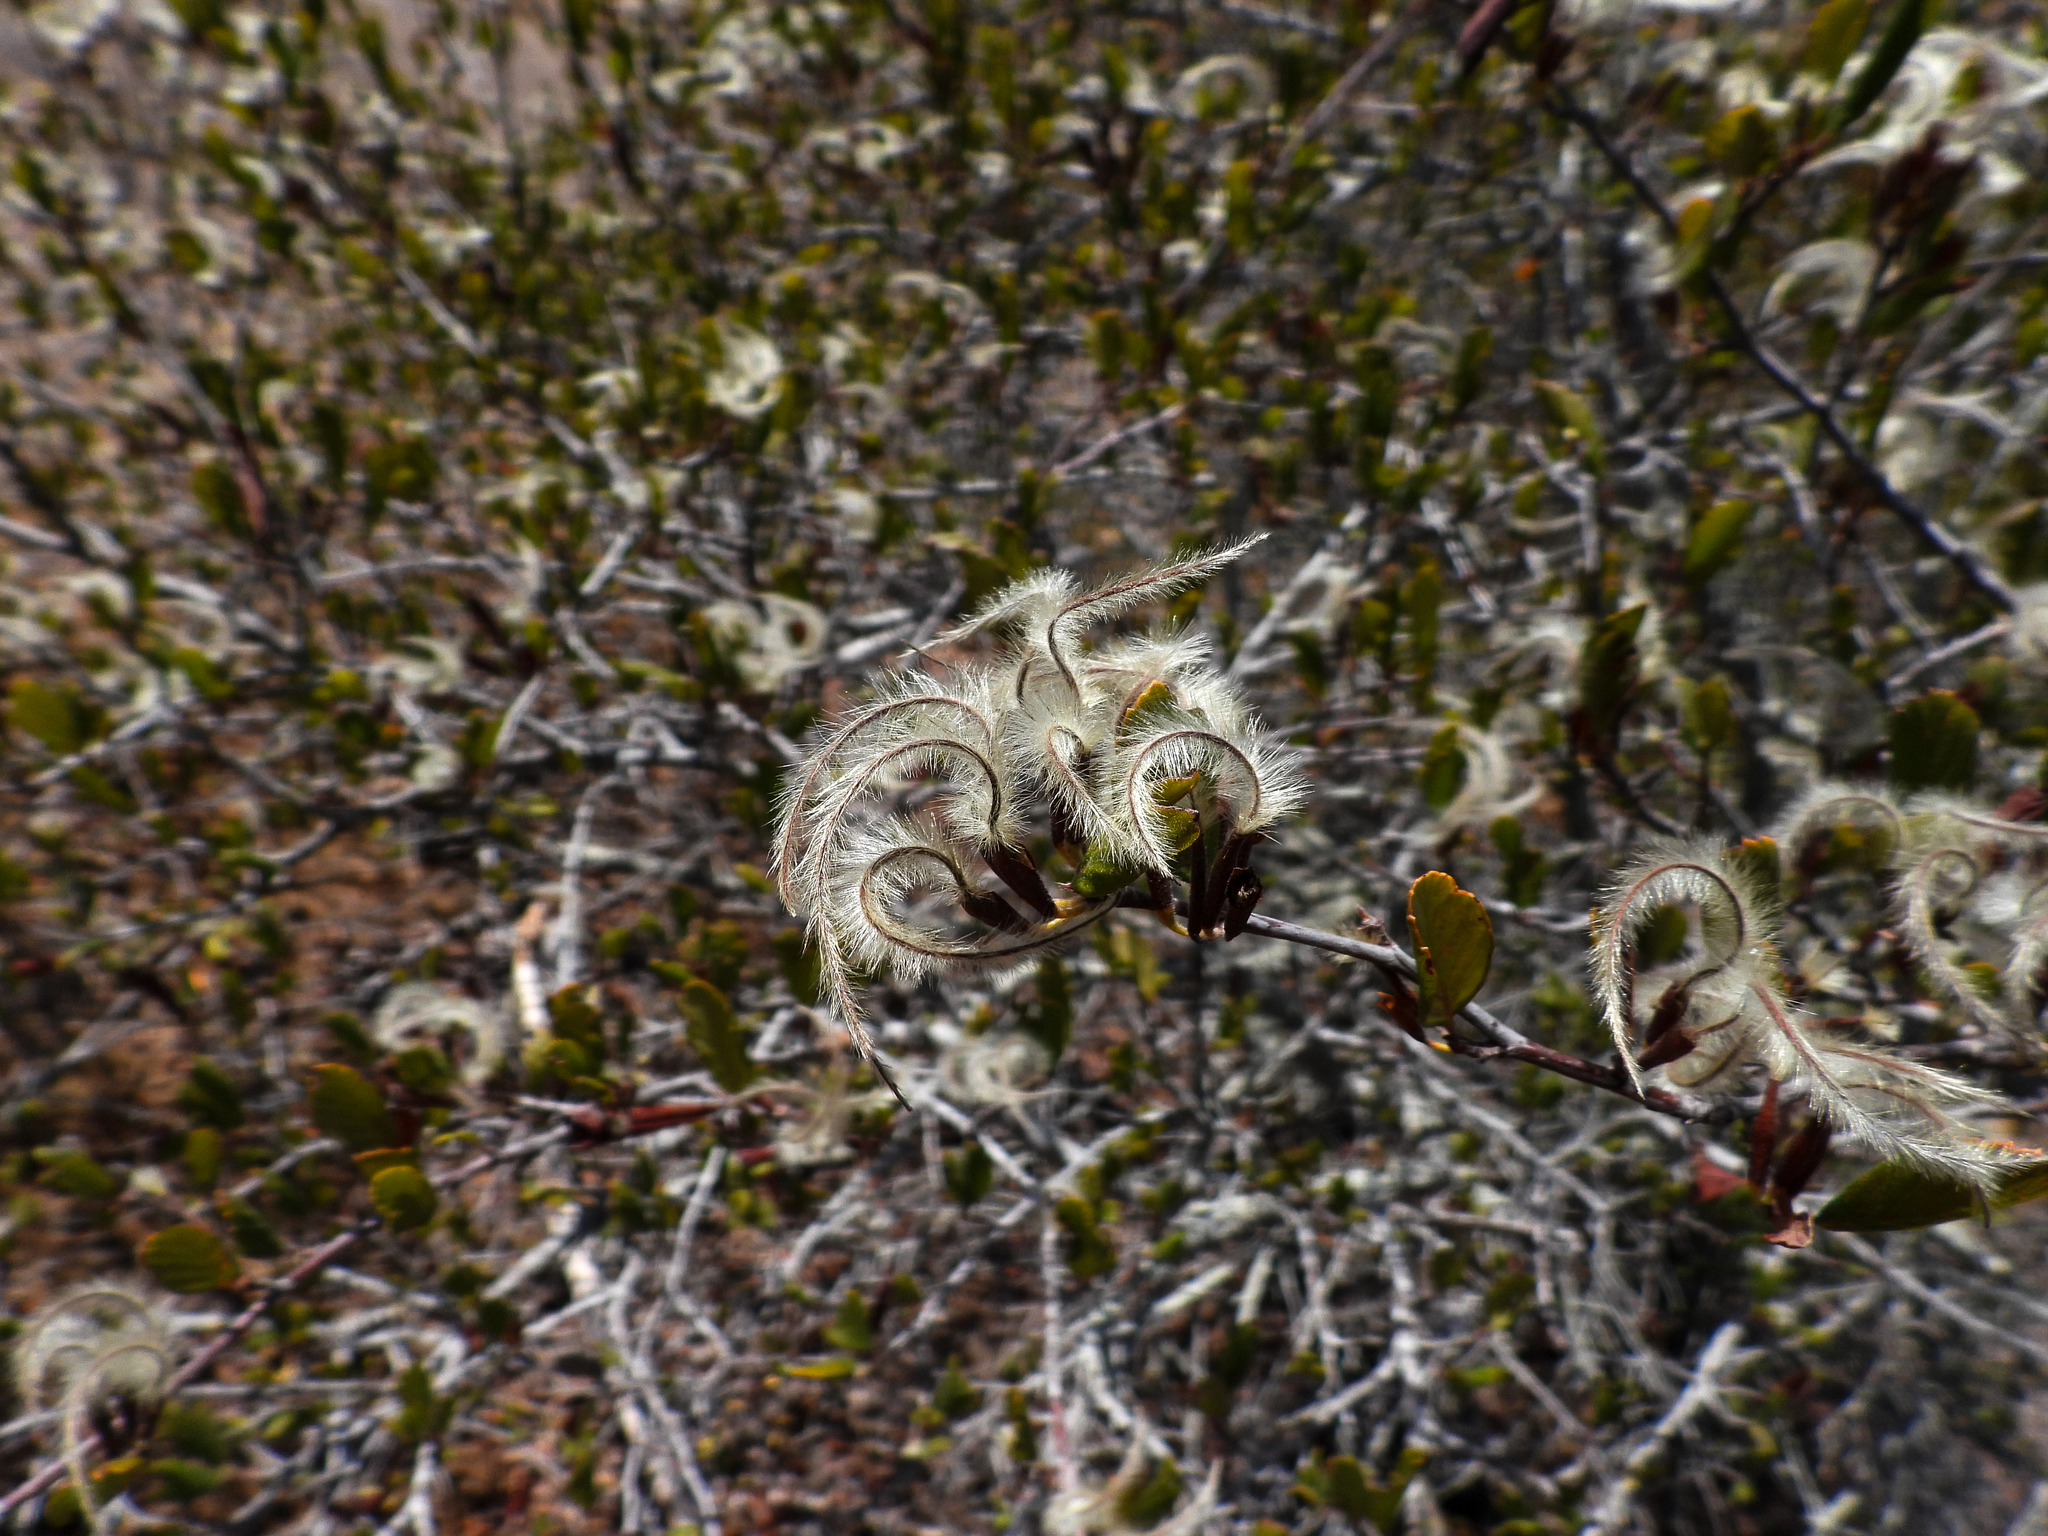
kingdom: Plantae
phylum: Tracheophyta
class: Magnoliopsida
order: Rosales
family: Rosaceae
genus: Cercocarpus
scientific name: Cercocarpus betuloides
